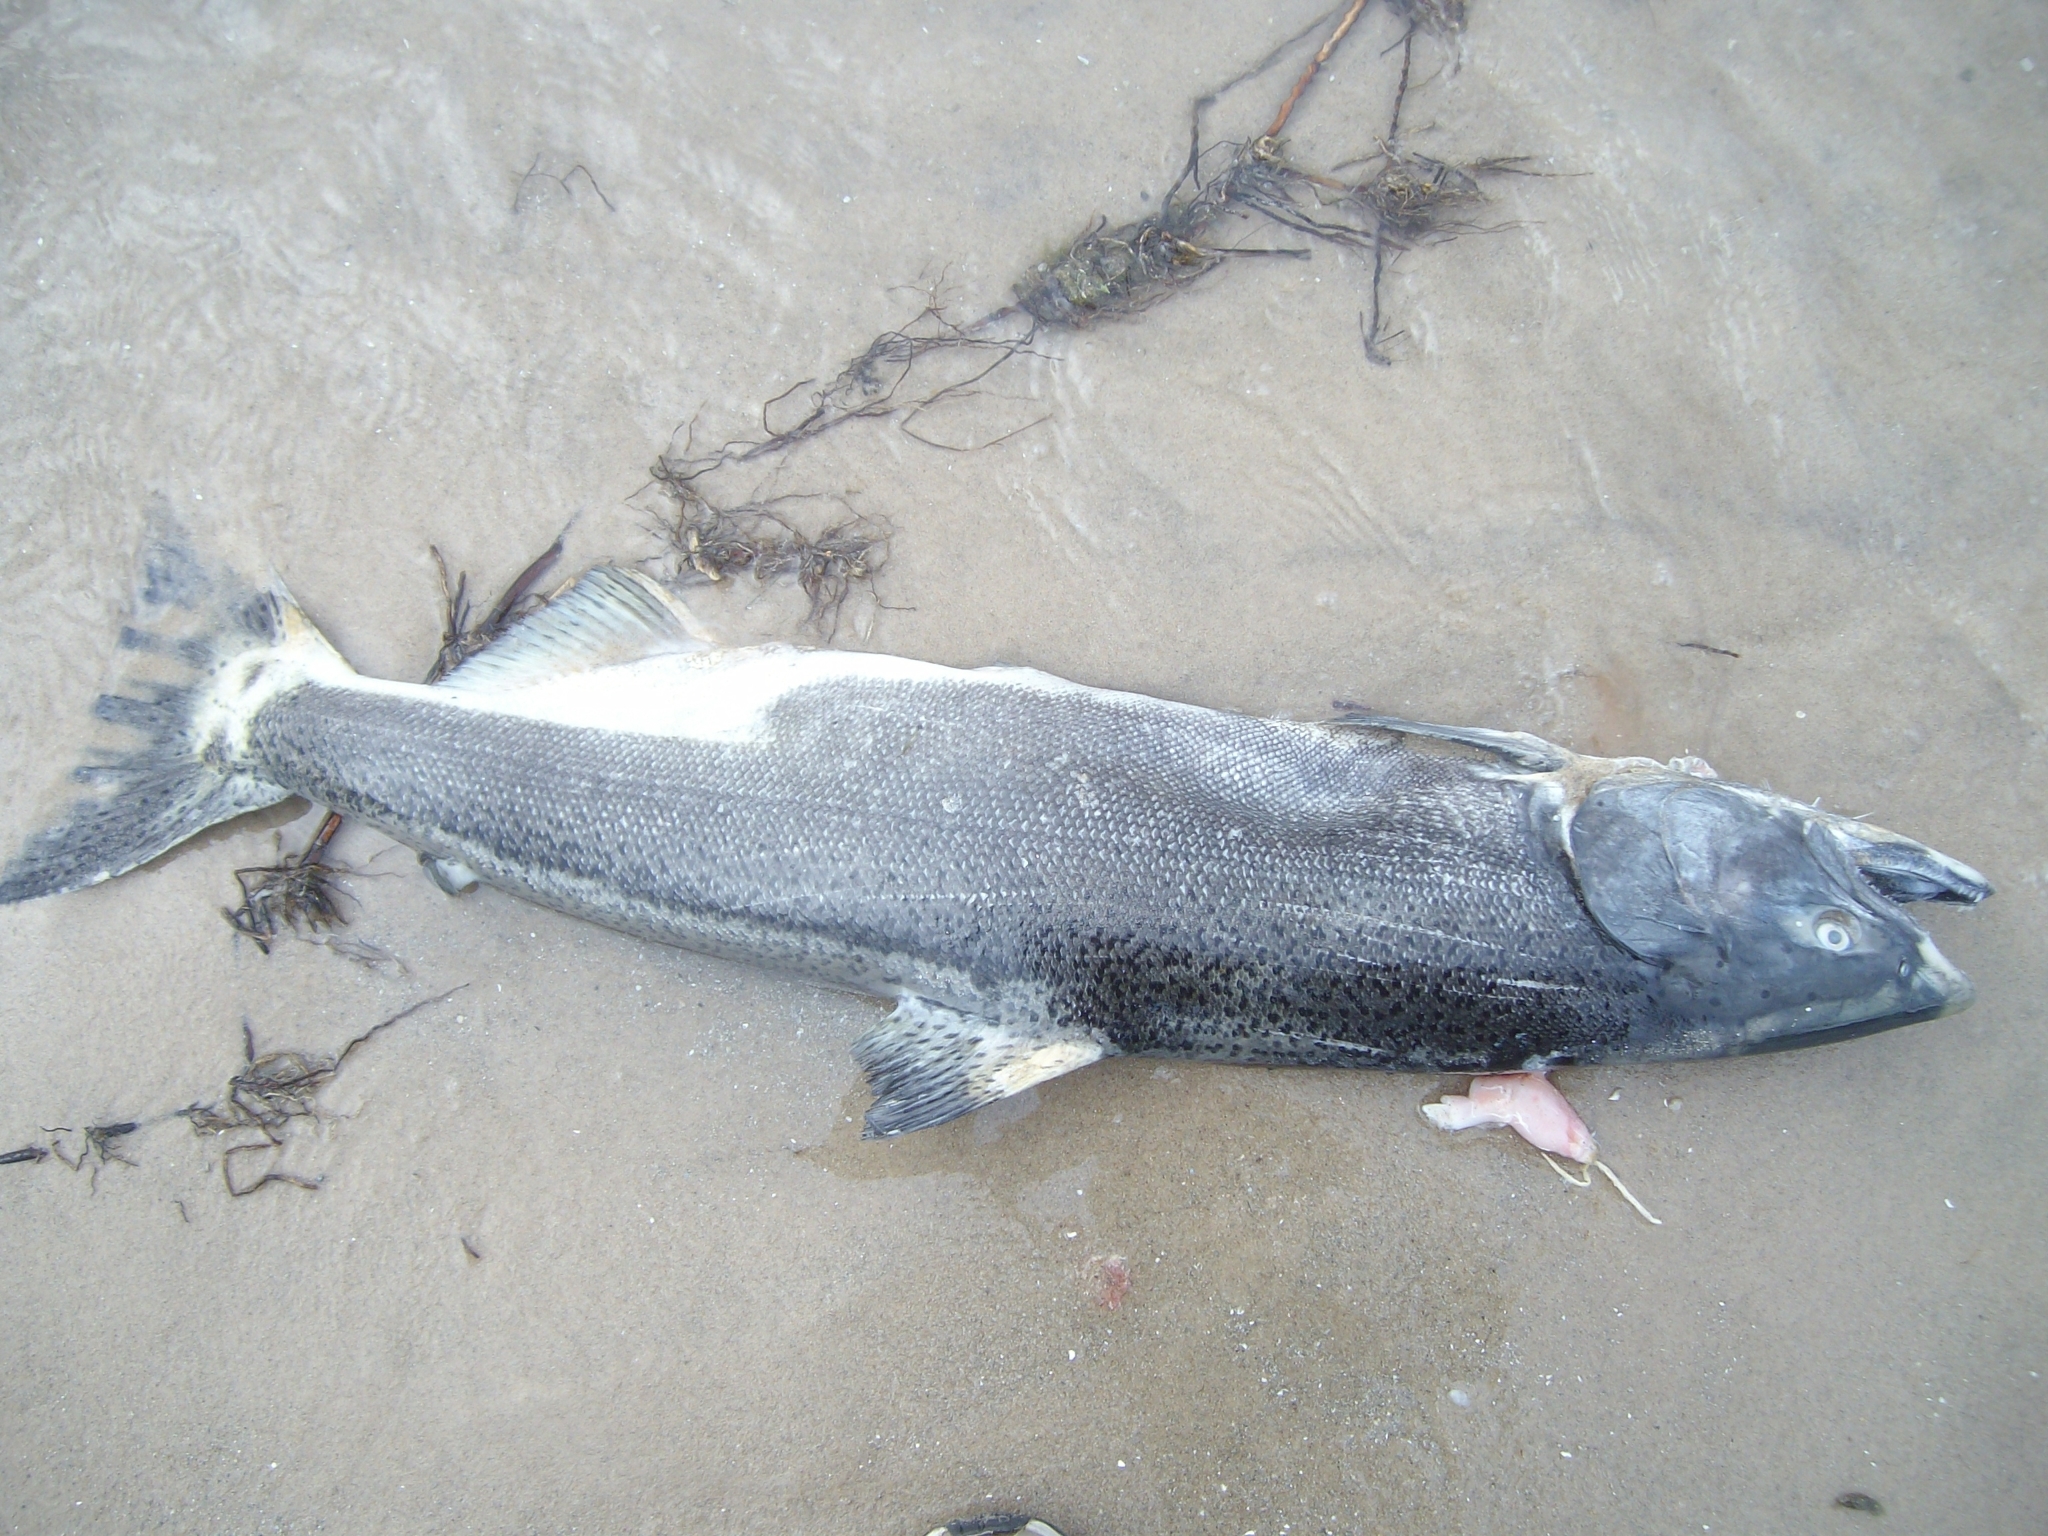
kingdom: Animalia
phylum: Chordata
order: Salmoniformes
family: Salmonidae
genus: Oncorhynchus
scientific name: Oncorhynchus tshawytscha
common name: Chinook salmon
